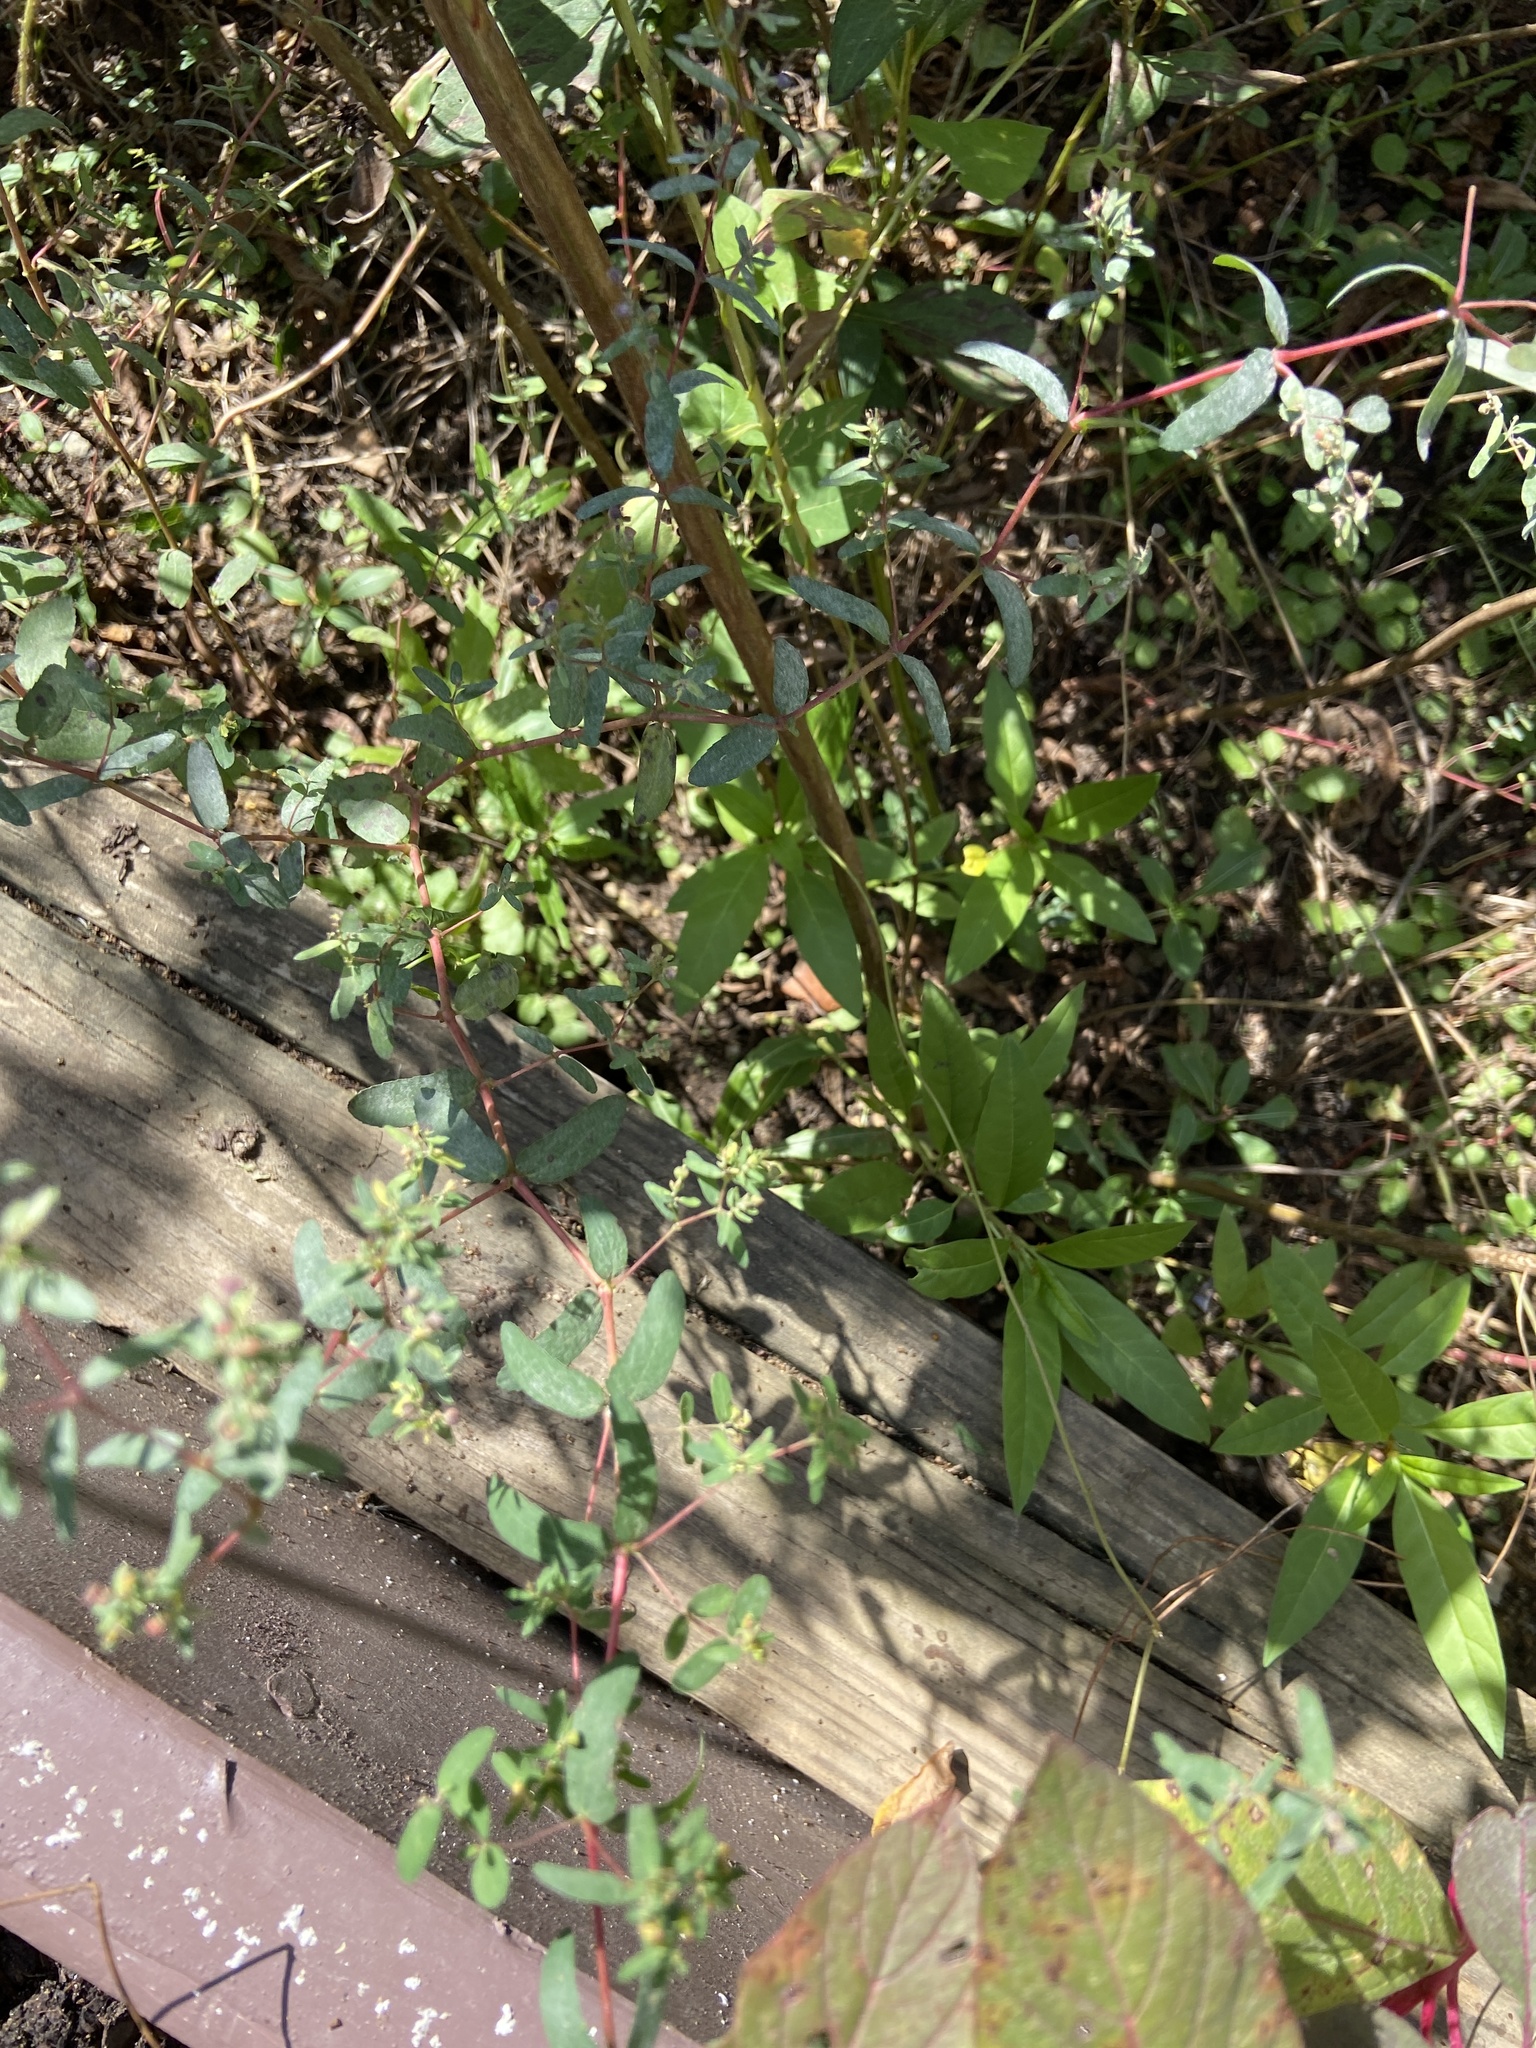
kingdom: Plantae
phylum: Tracheophyta
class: Magnoliopsida
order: Malpighiales
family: Euphorbiaceae
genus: Euphorbia
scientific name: Euphorbia nutans
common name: Eyebane
